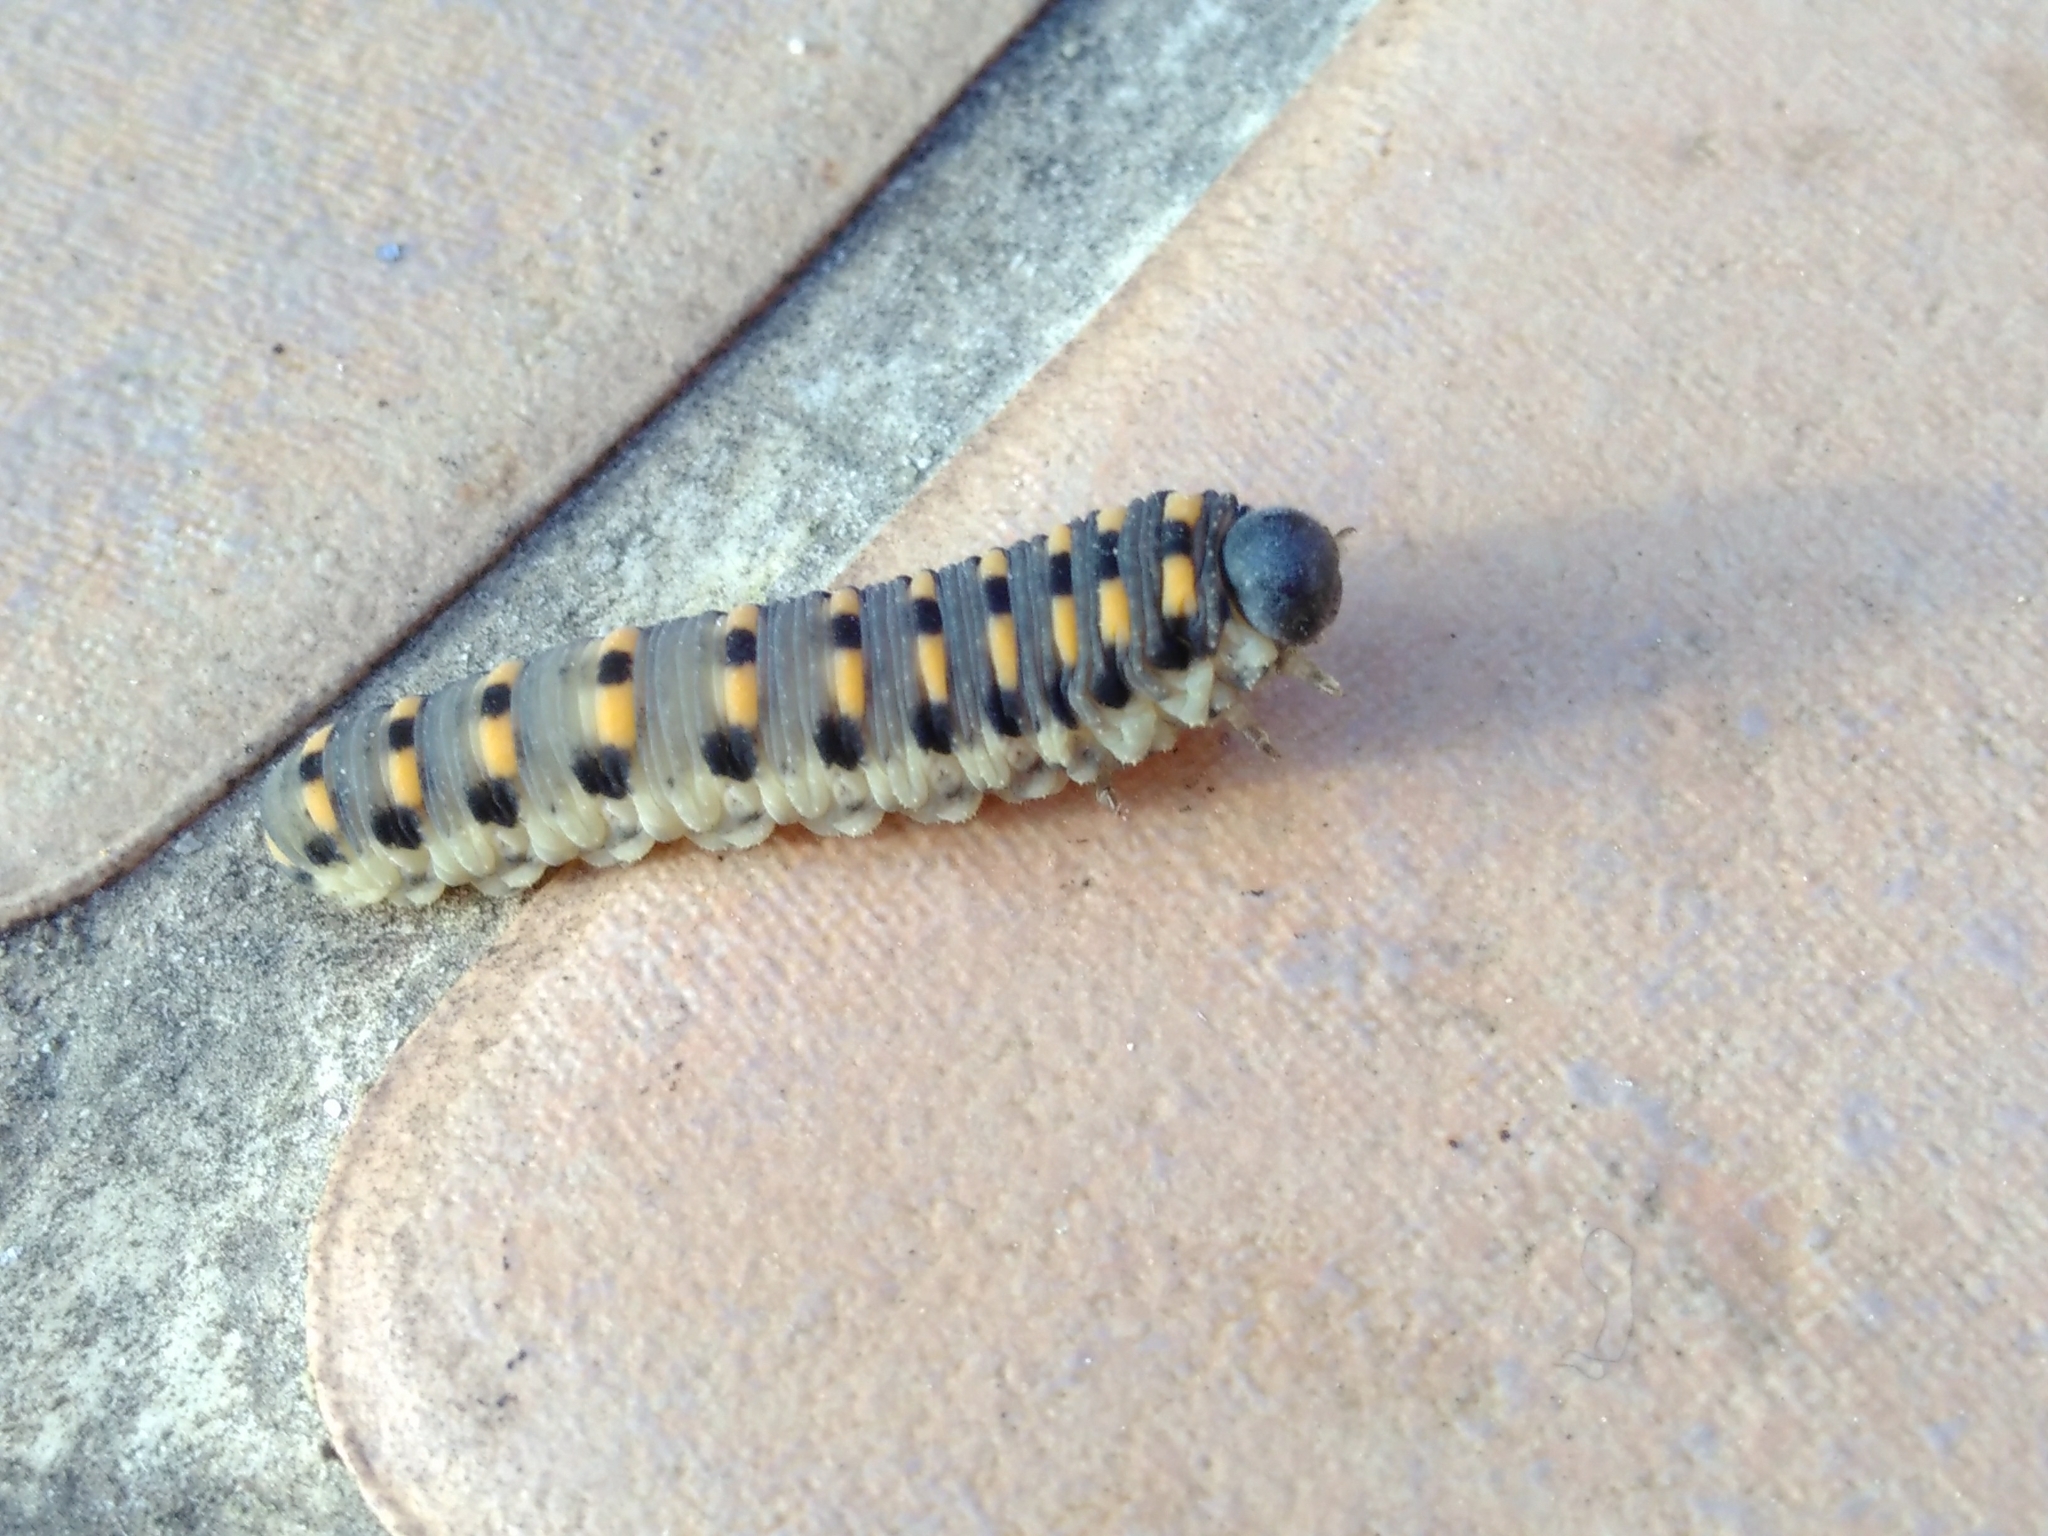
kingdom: Animalia
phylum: Arthropoda
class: Insecta
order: Hymenoptera
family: Cimbicidae
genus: Abia
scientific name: Abia nitens
